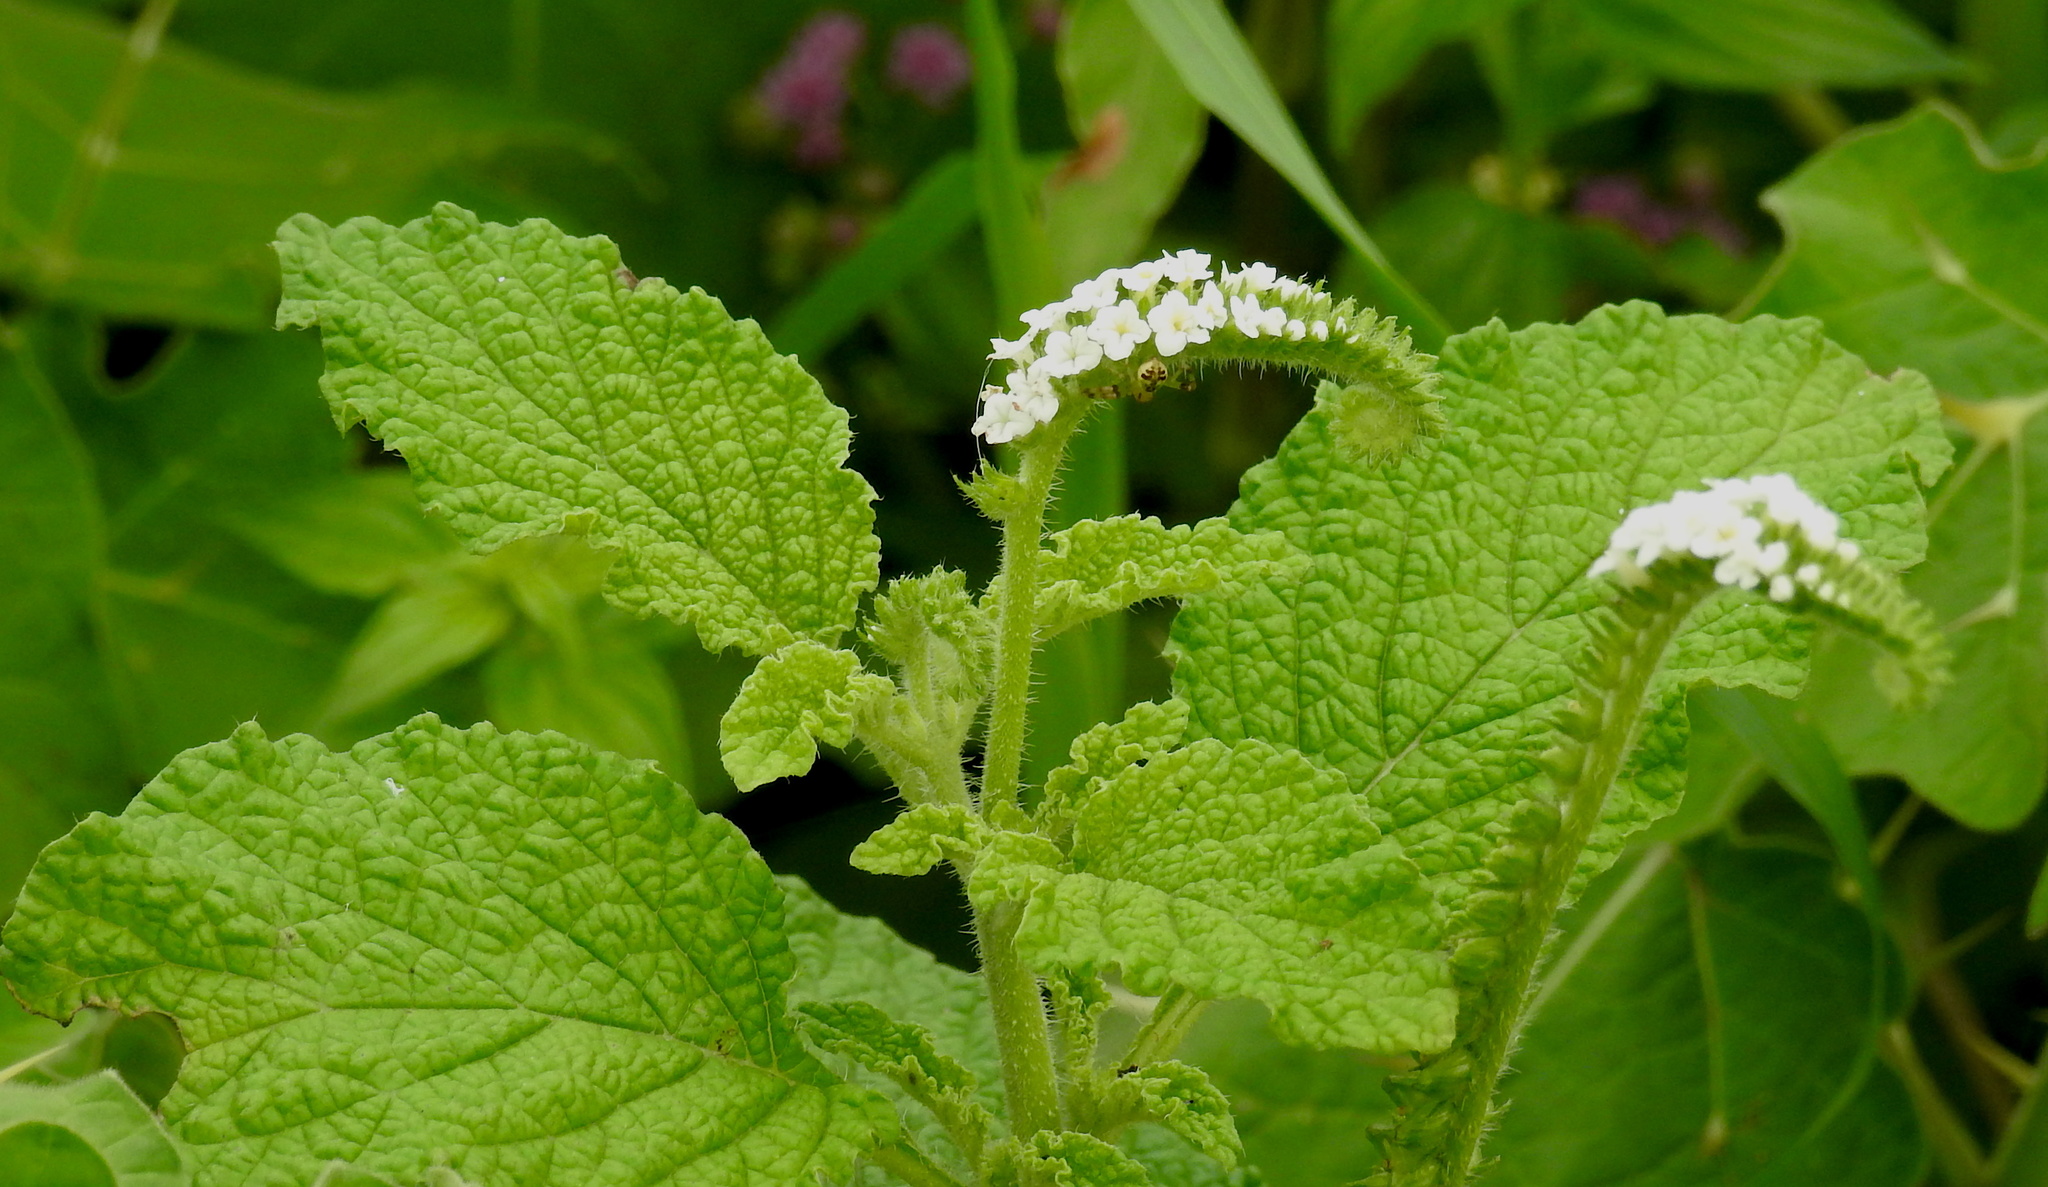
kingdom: Plantae
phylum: Tracheophyta
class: Magnoliopsida
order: Boraginales
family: Heliotropiaceae
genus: Heliotropium
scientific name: Heliotropium indicum
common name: Indian heliotrope
